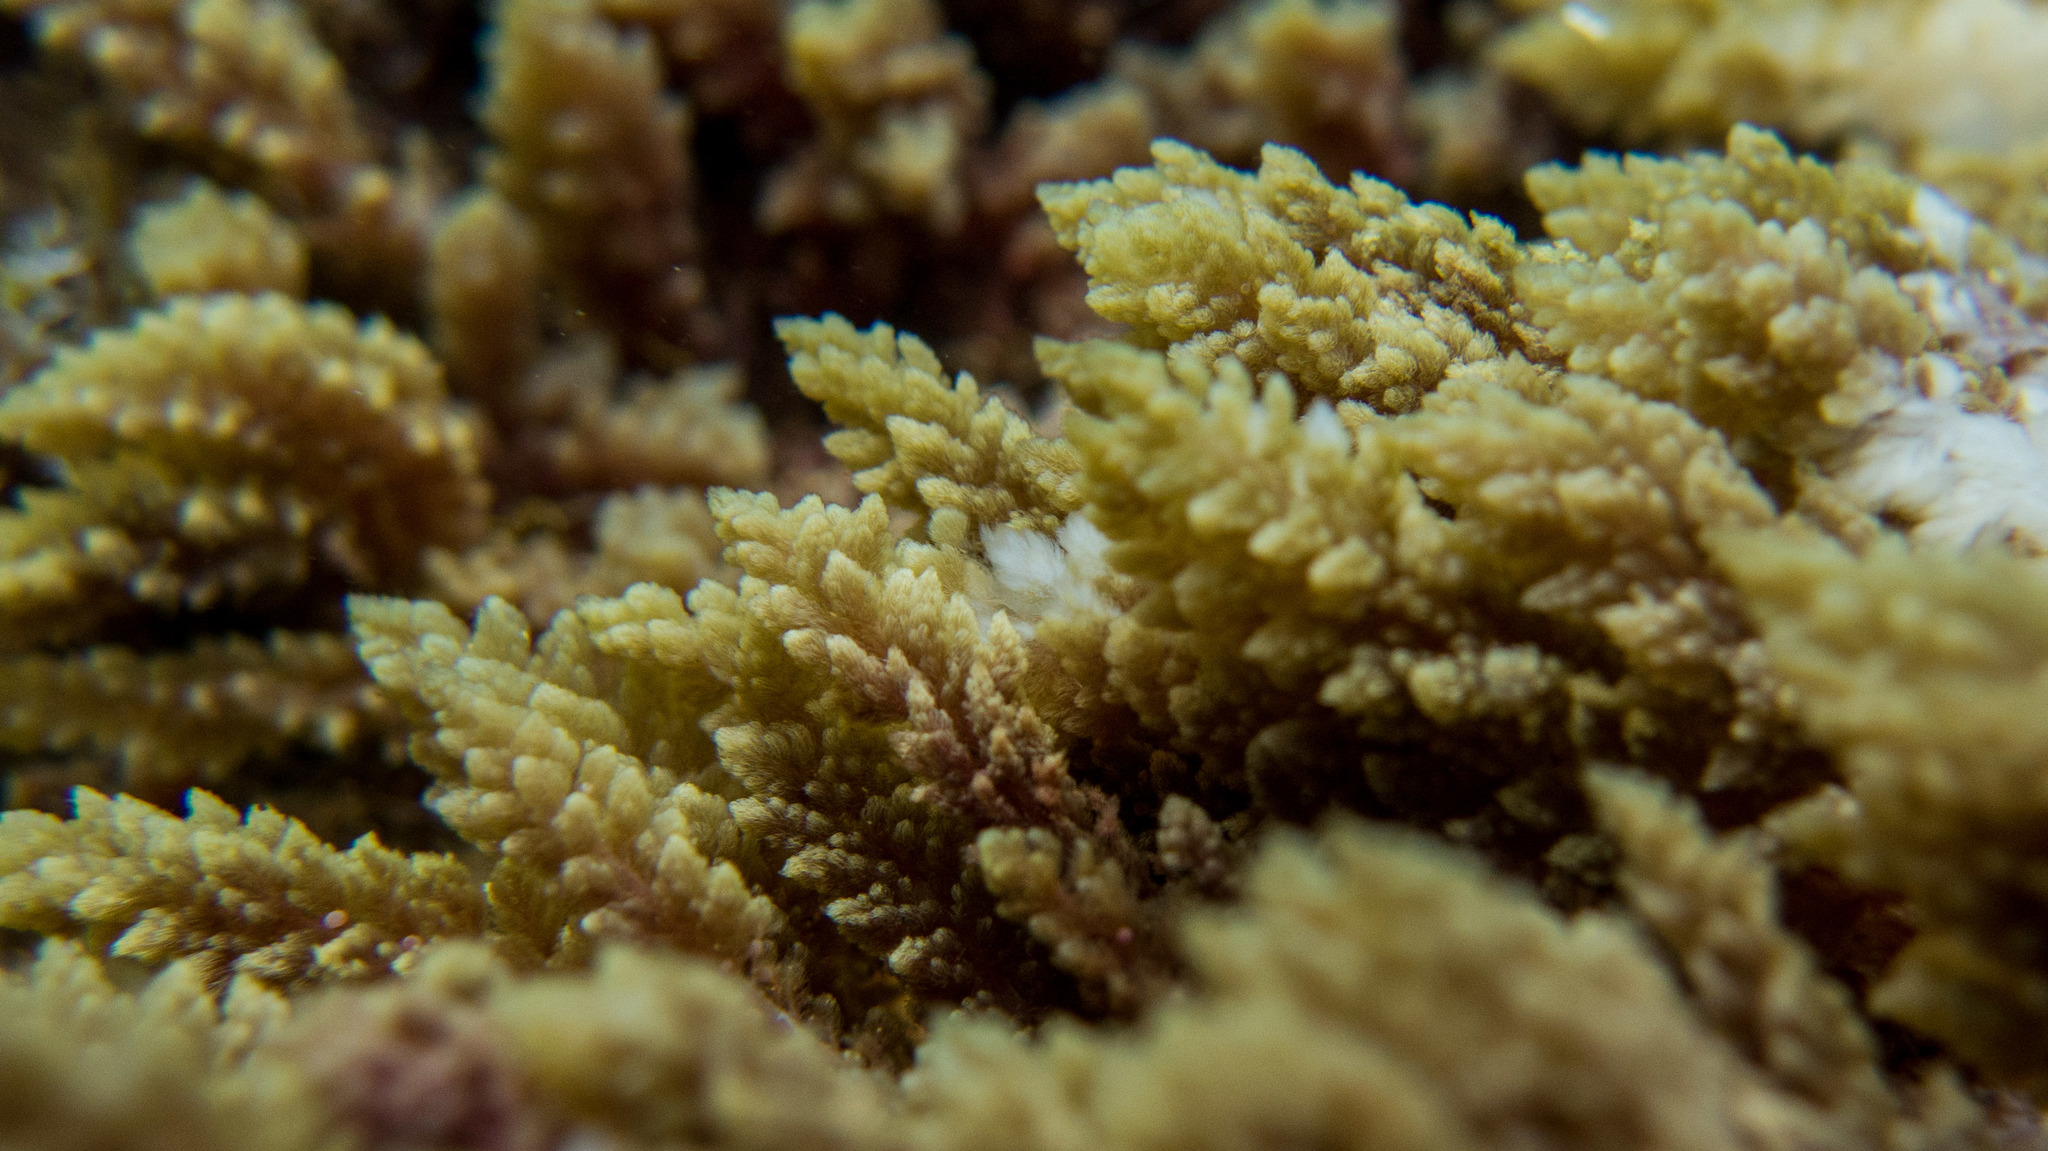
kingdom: Plantae
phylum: Rhodophyta
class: Florideophyceae
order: Bonnemaisoniales
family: Bonnemaisoniaceae
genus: Asparagopsis
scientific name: Asparagopsis taxiformis
